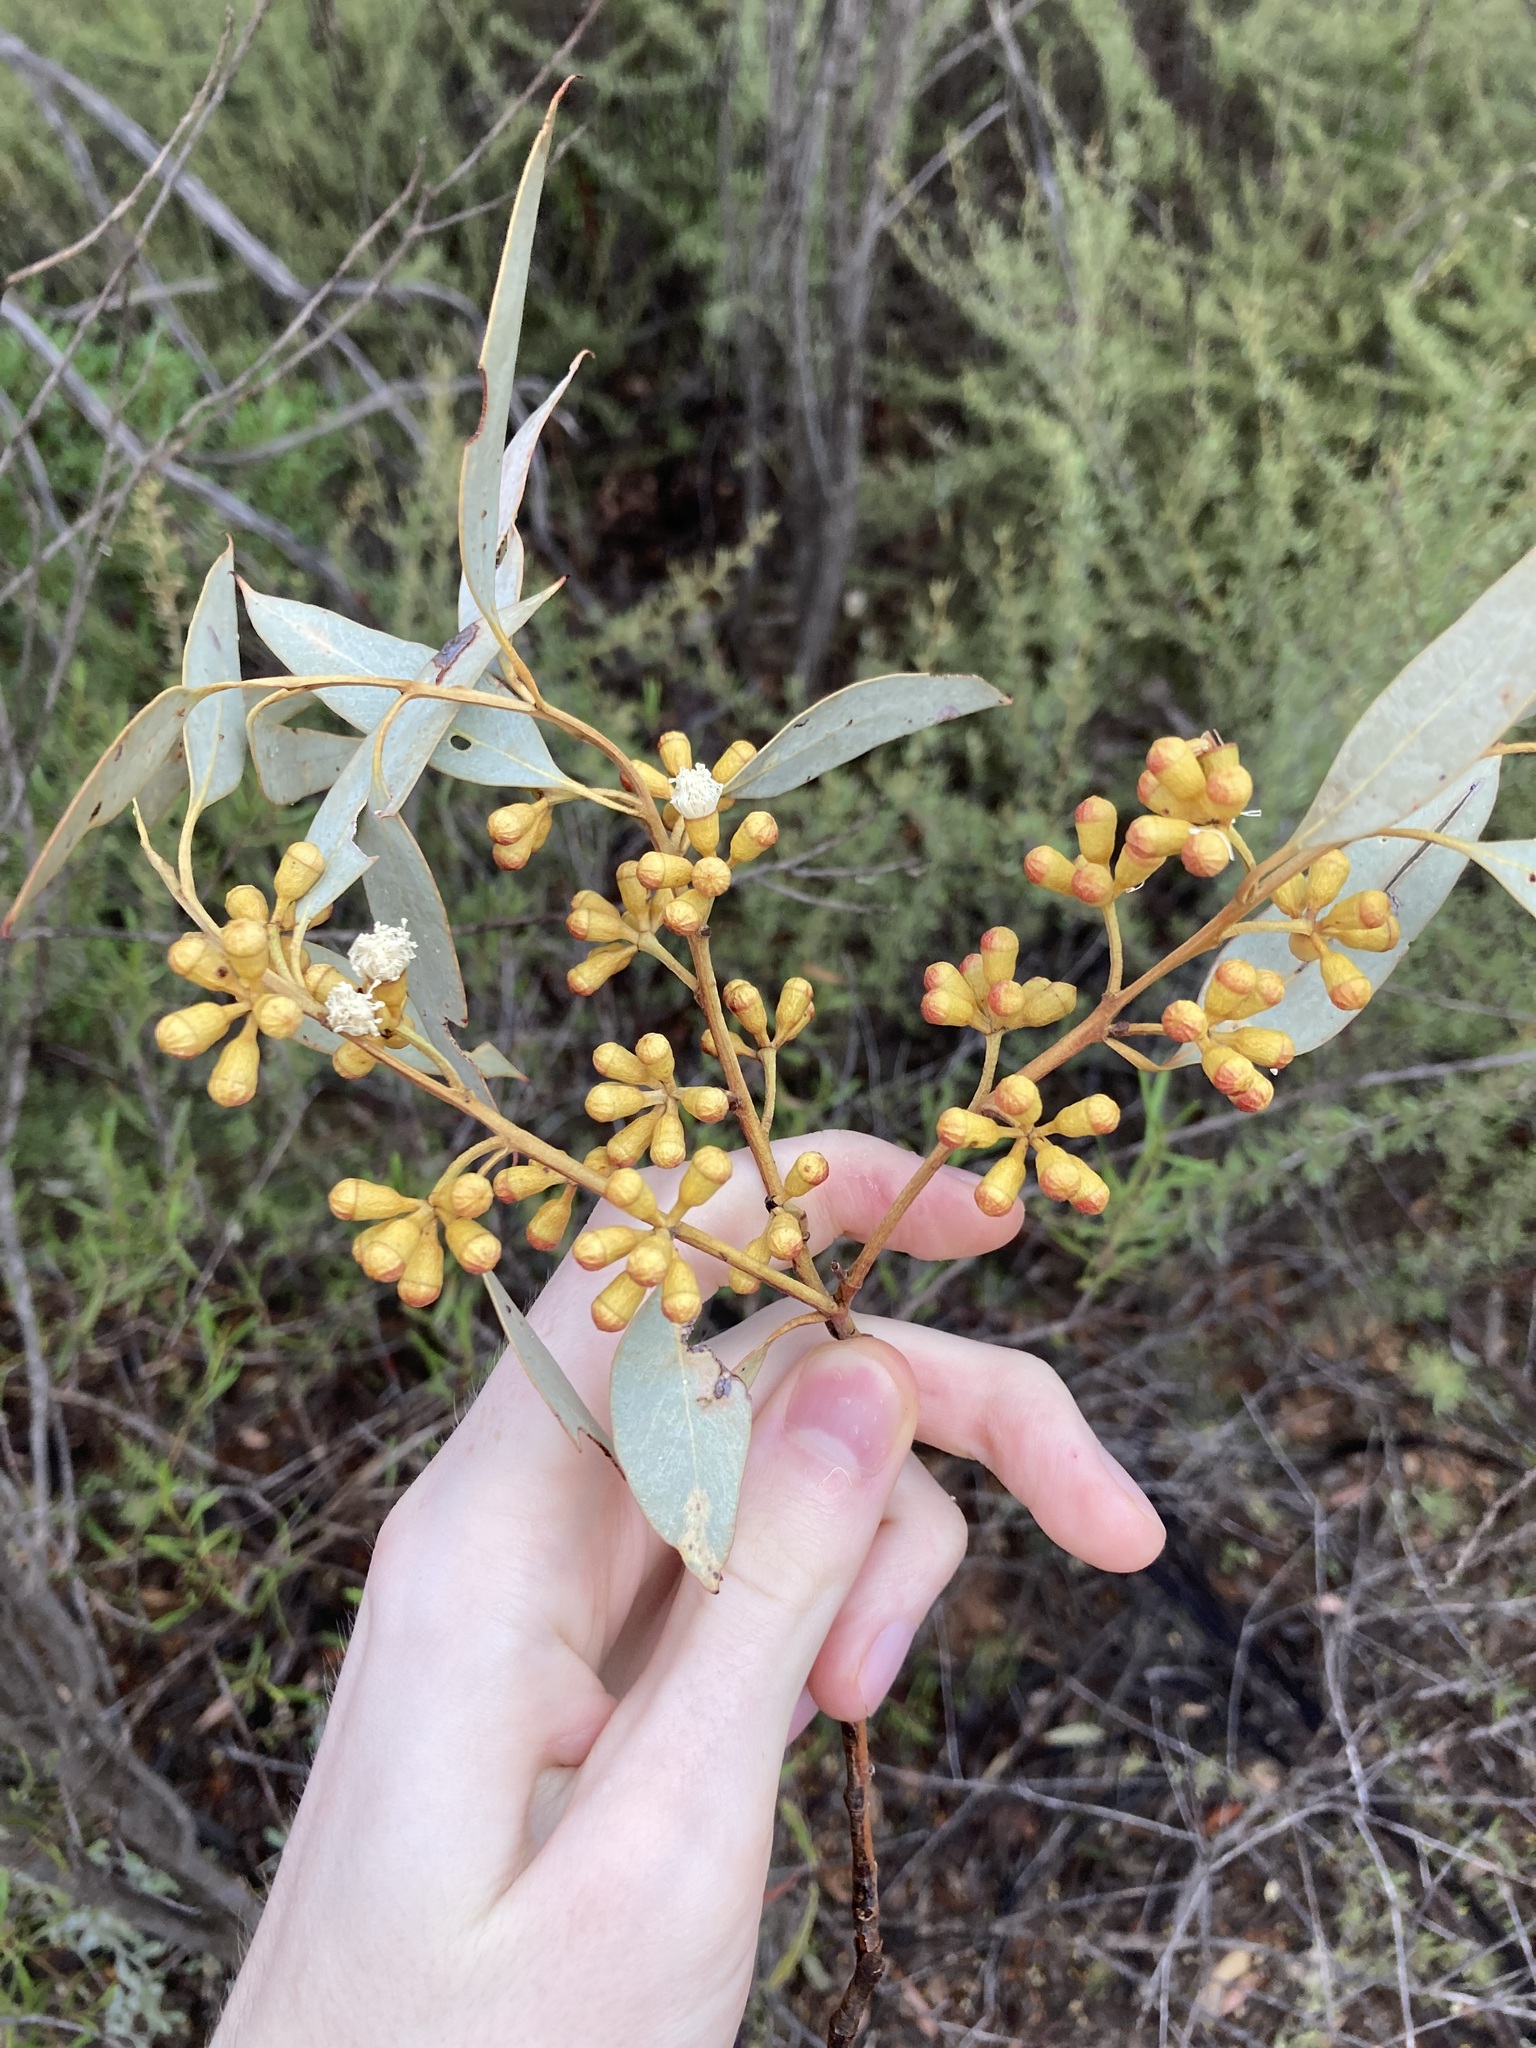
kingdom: Plantae
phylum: Tracheophyta
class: Magnoliopsida
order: Myrtales
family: Myrtaceae
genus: Eucalyptus
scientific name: Eucalyptus dumosa
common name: Dumosa mallee
